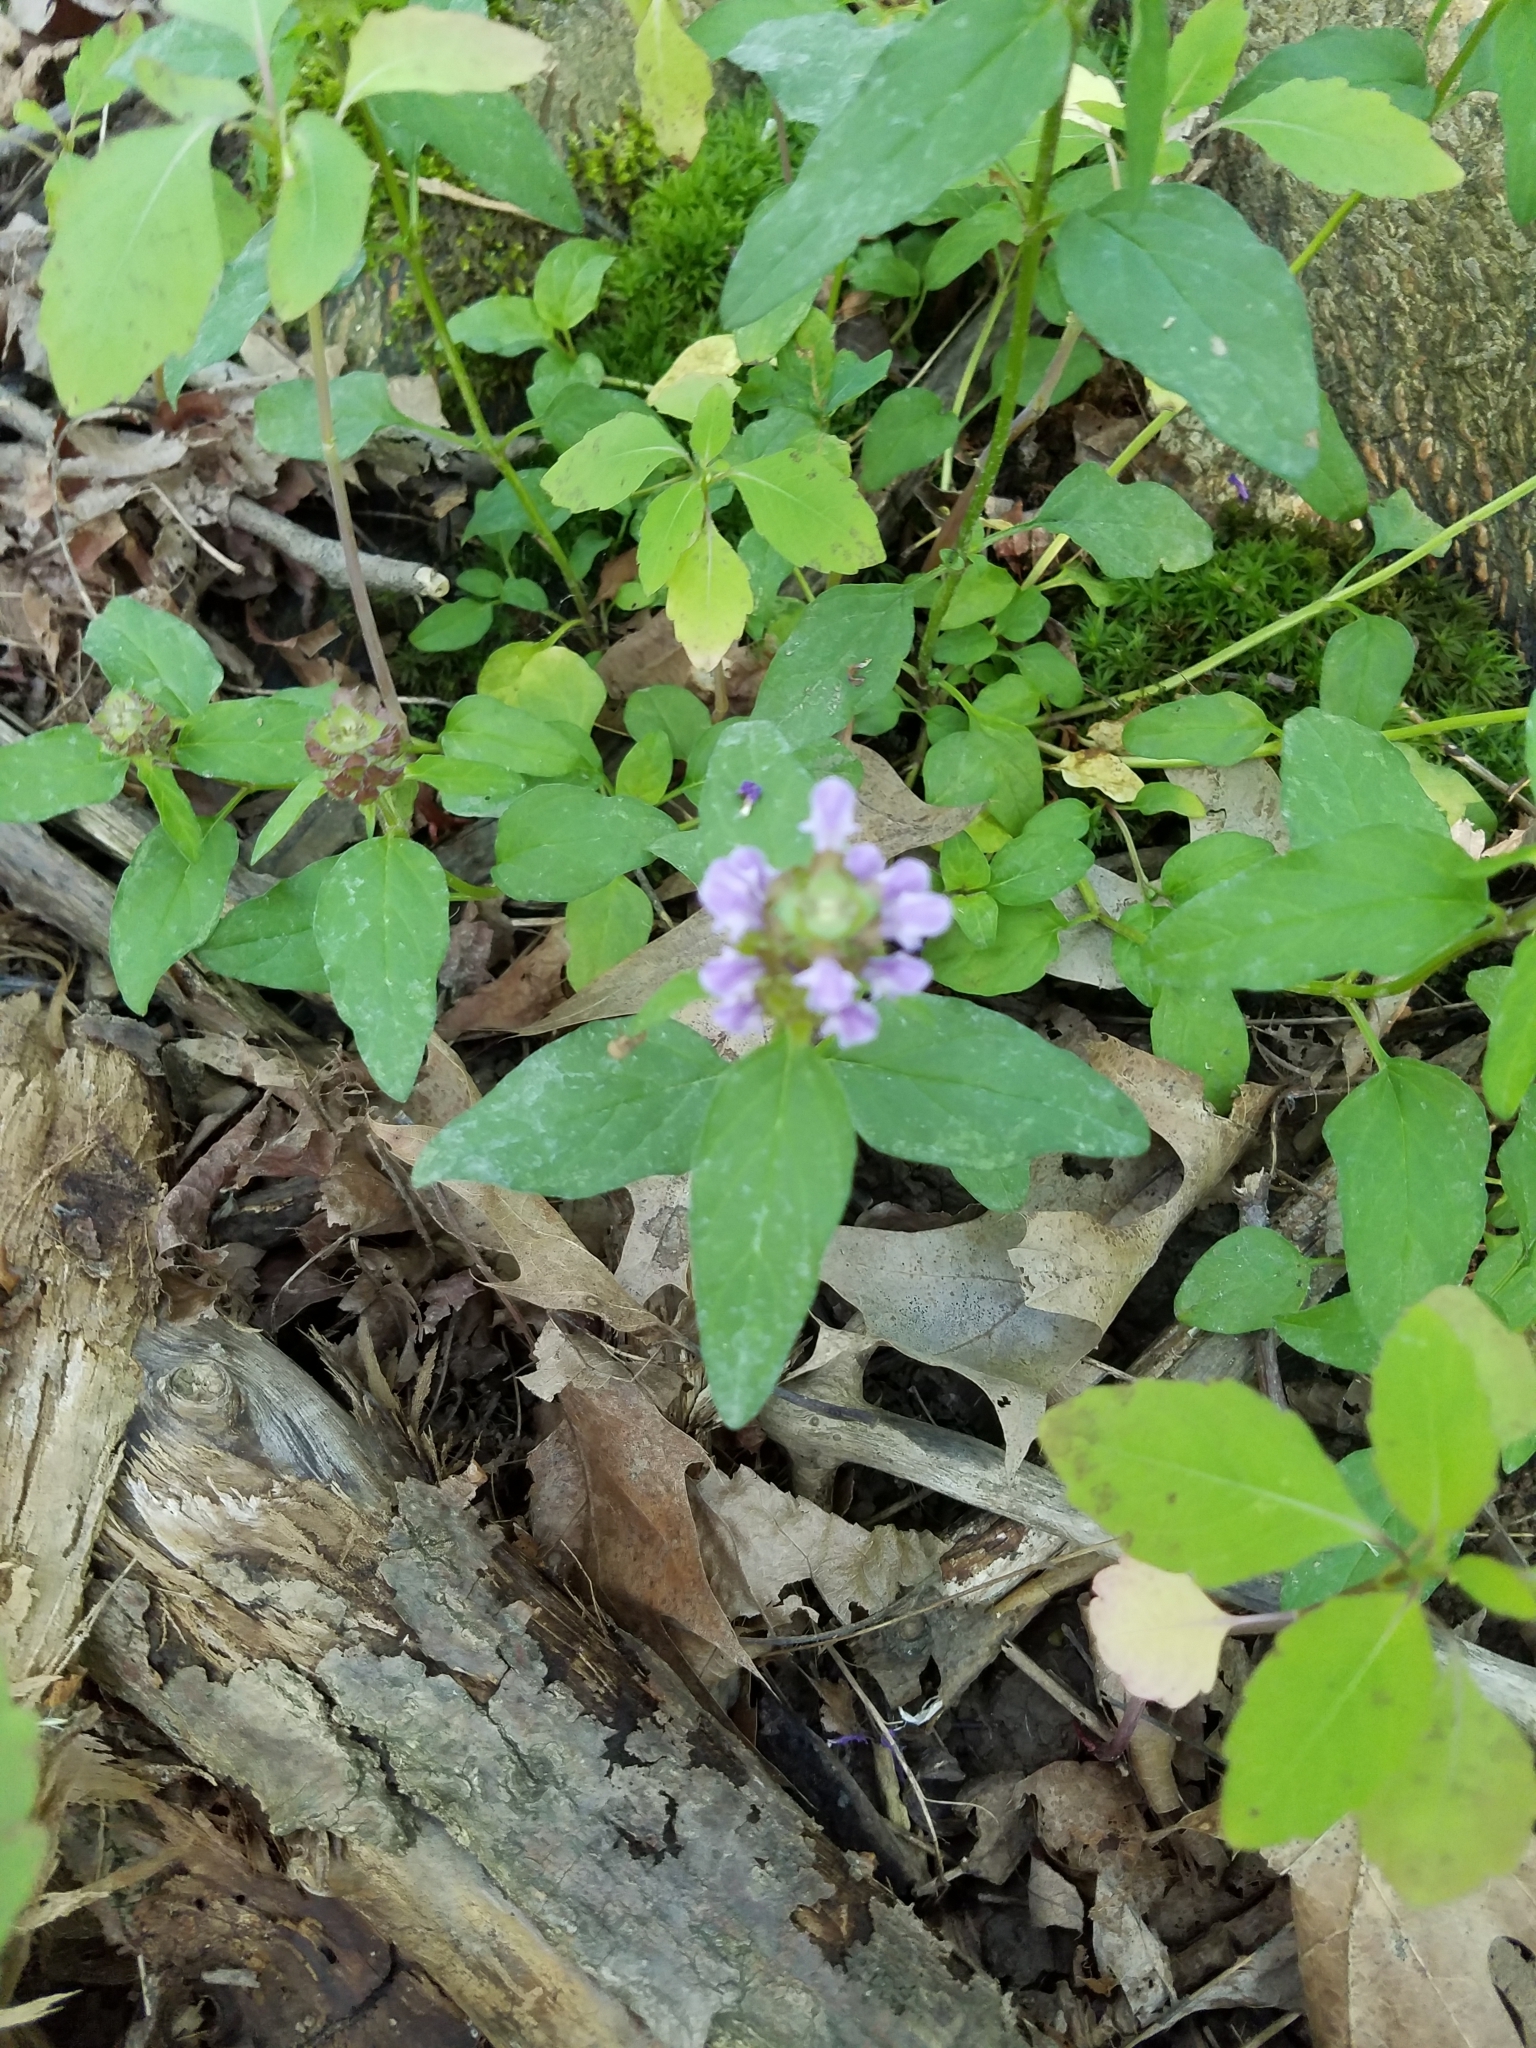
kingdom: Plantae
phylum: Tracheophyta
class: Magnoliopsida
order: Lamiales
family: Lamiaceae
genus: Prunella
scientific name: Prunella vulgaris
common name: Heal-all
